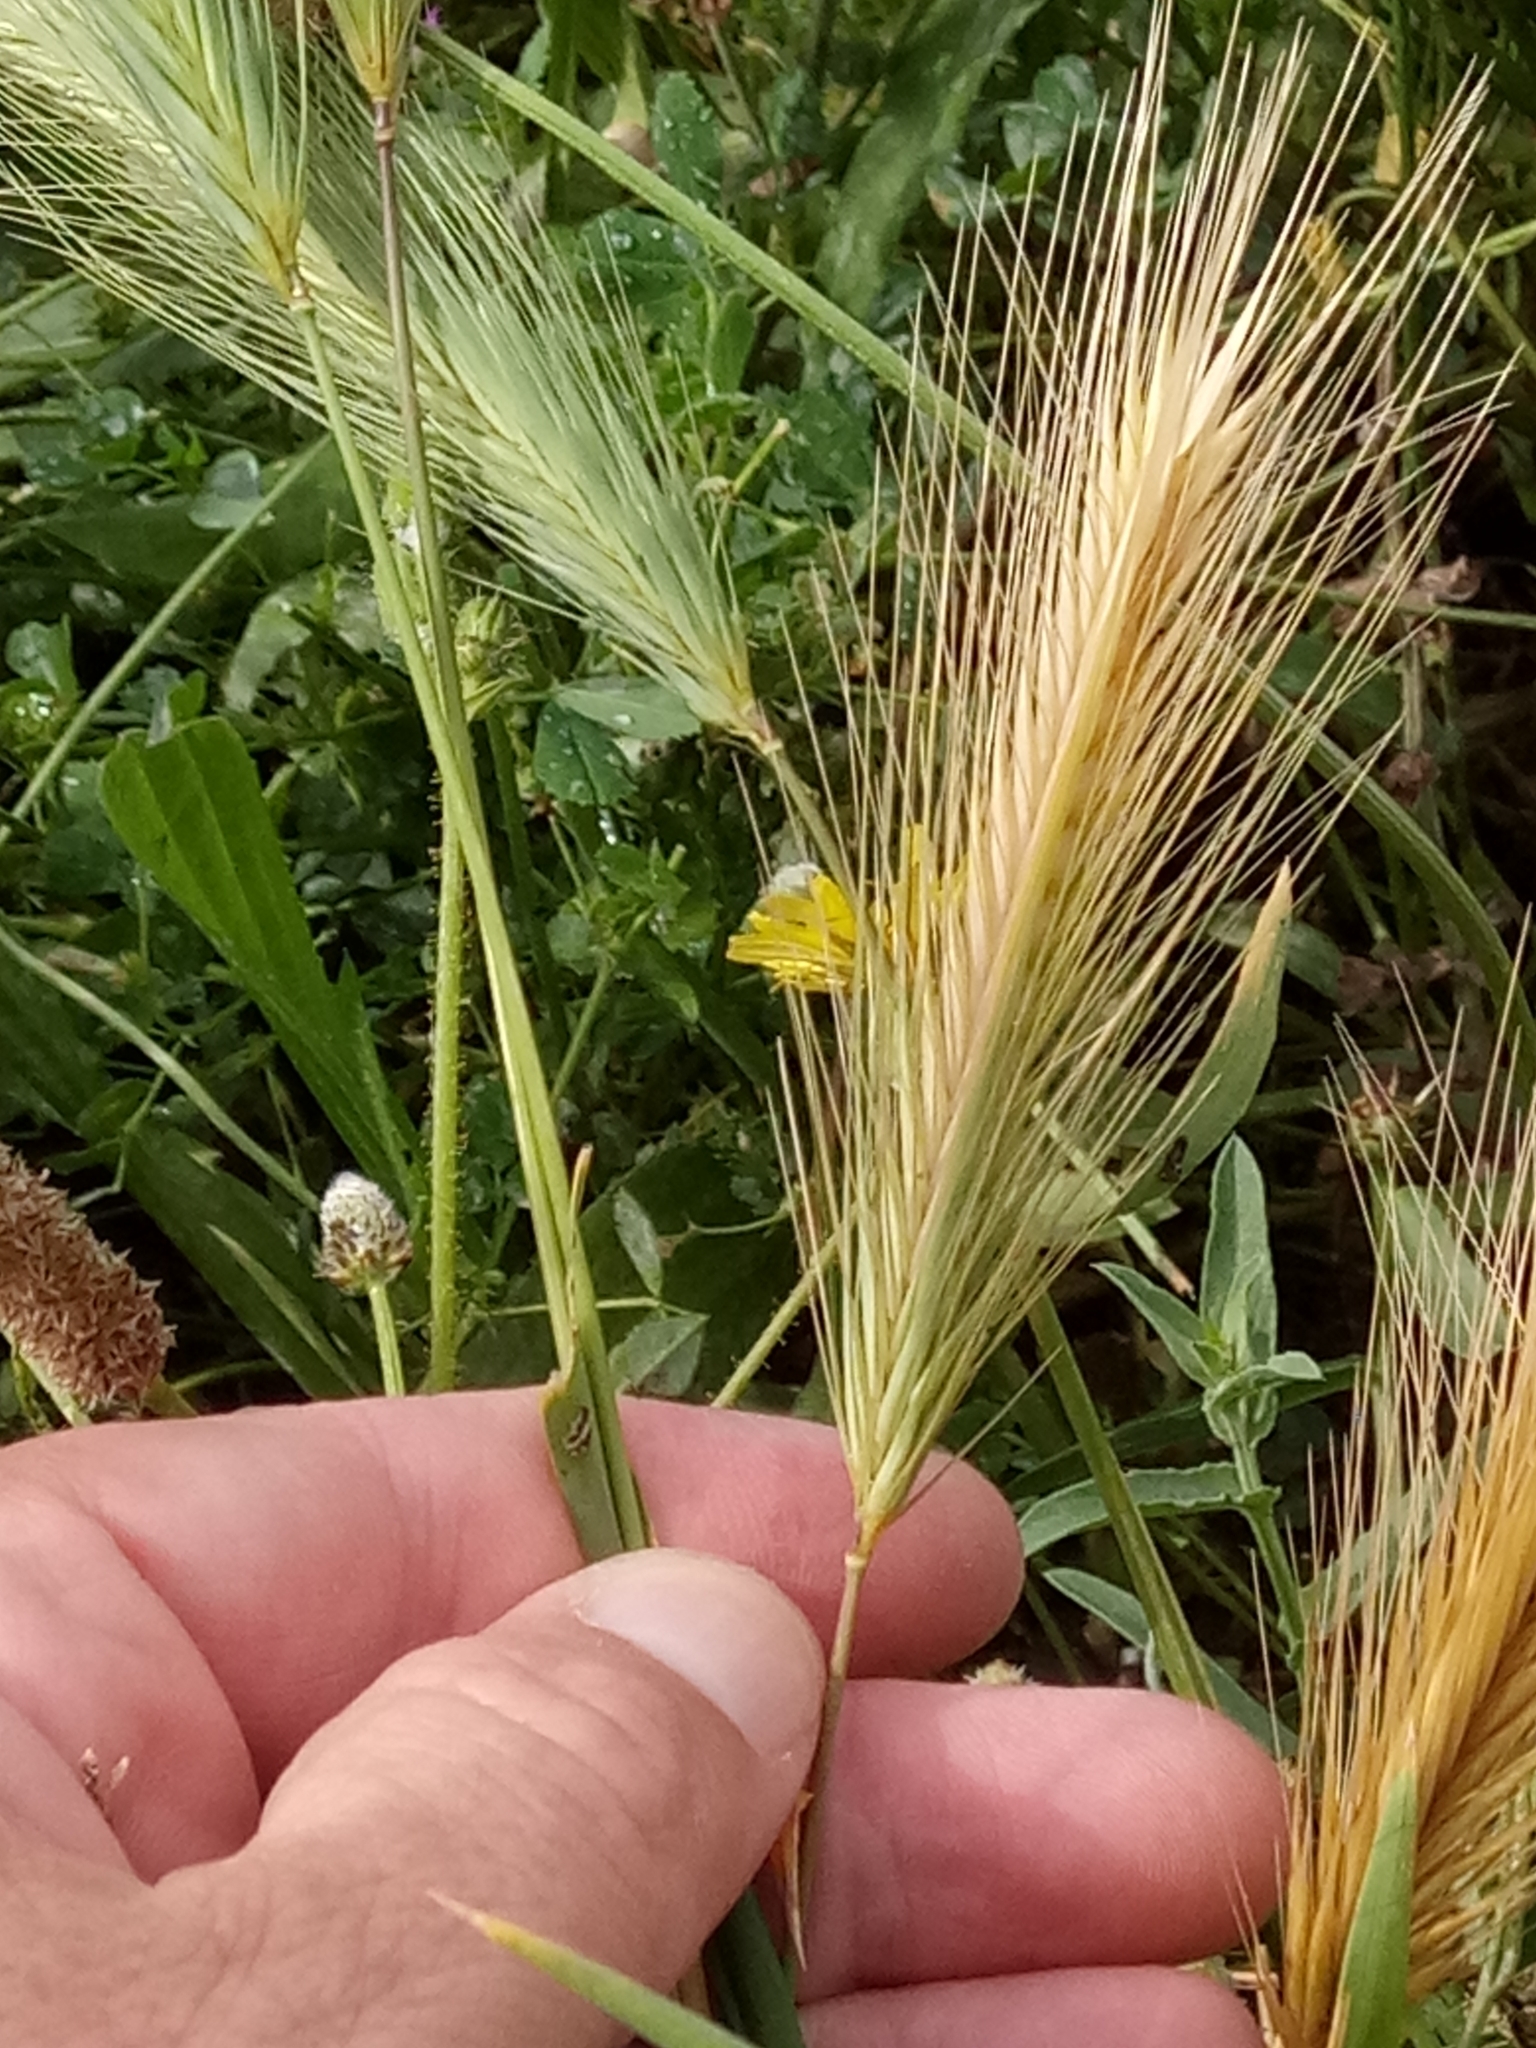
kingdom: Plantae
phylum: Tracheophyta
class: Liliopsida
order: Poales
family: Poaceae
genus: Hordeum
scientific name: Hordeum murinum
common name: Wall barley
